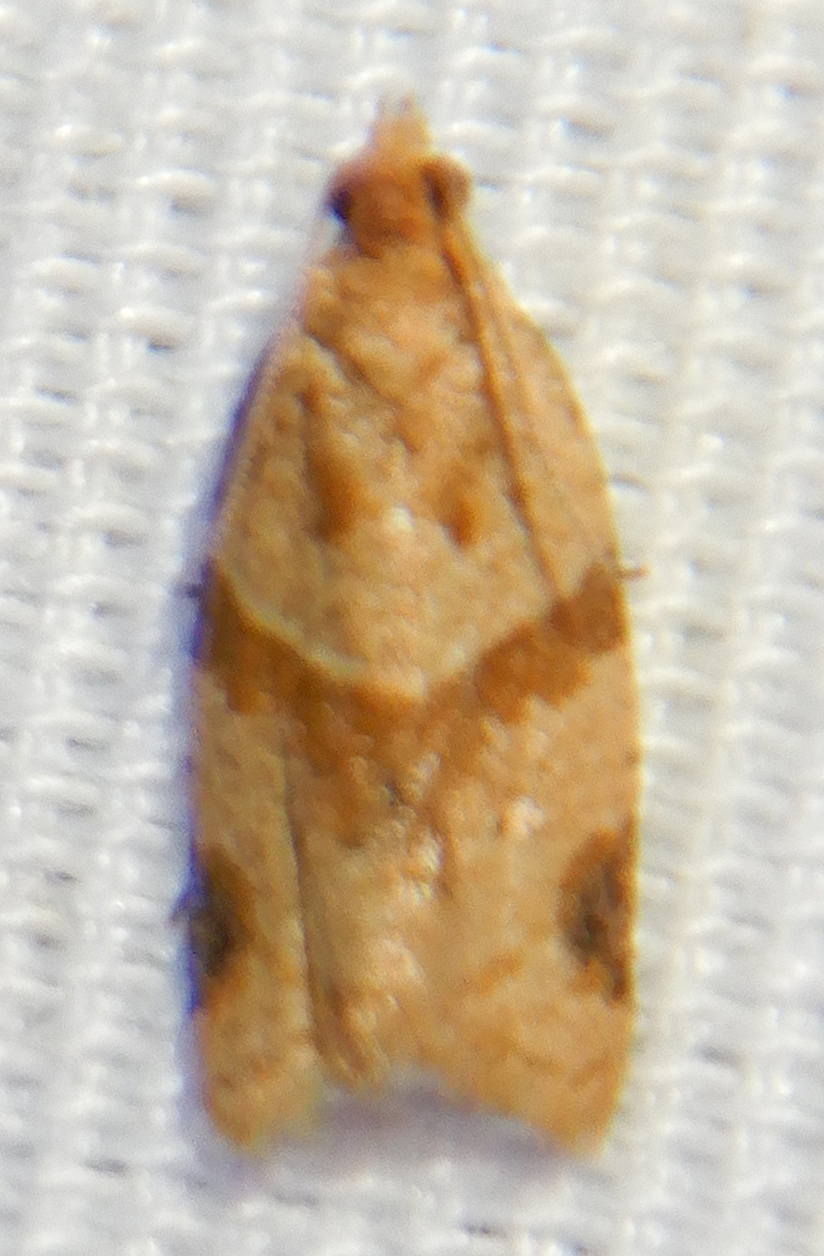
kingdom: Animalia
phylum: Arthropoda
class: Insecta
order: Lepidoptera
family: Tortricidae
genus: Clepsis
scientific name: Clepsis peritana
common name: Garden tortrix
